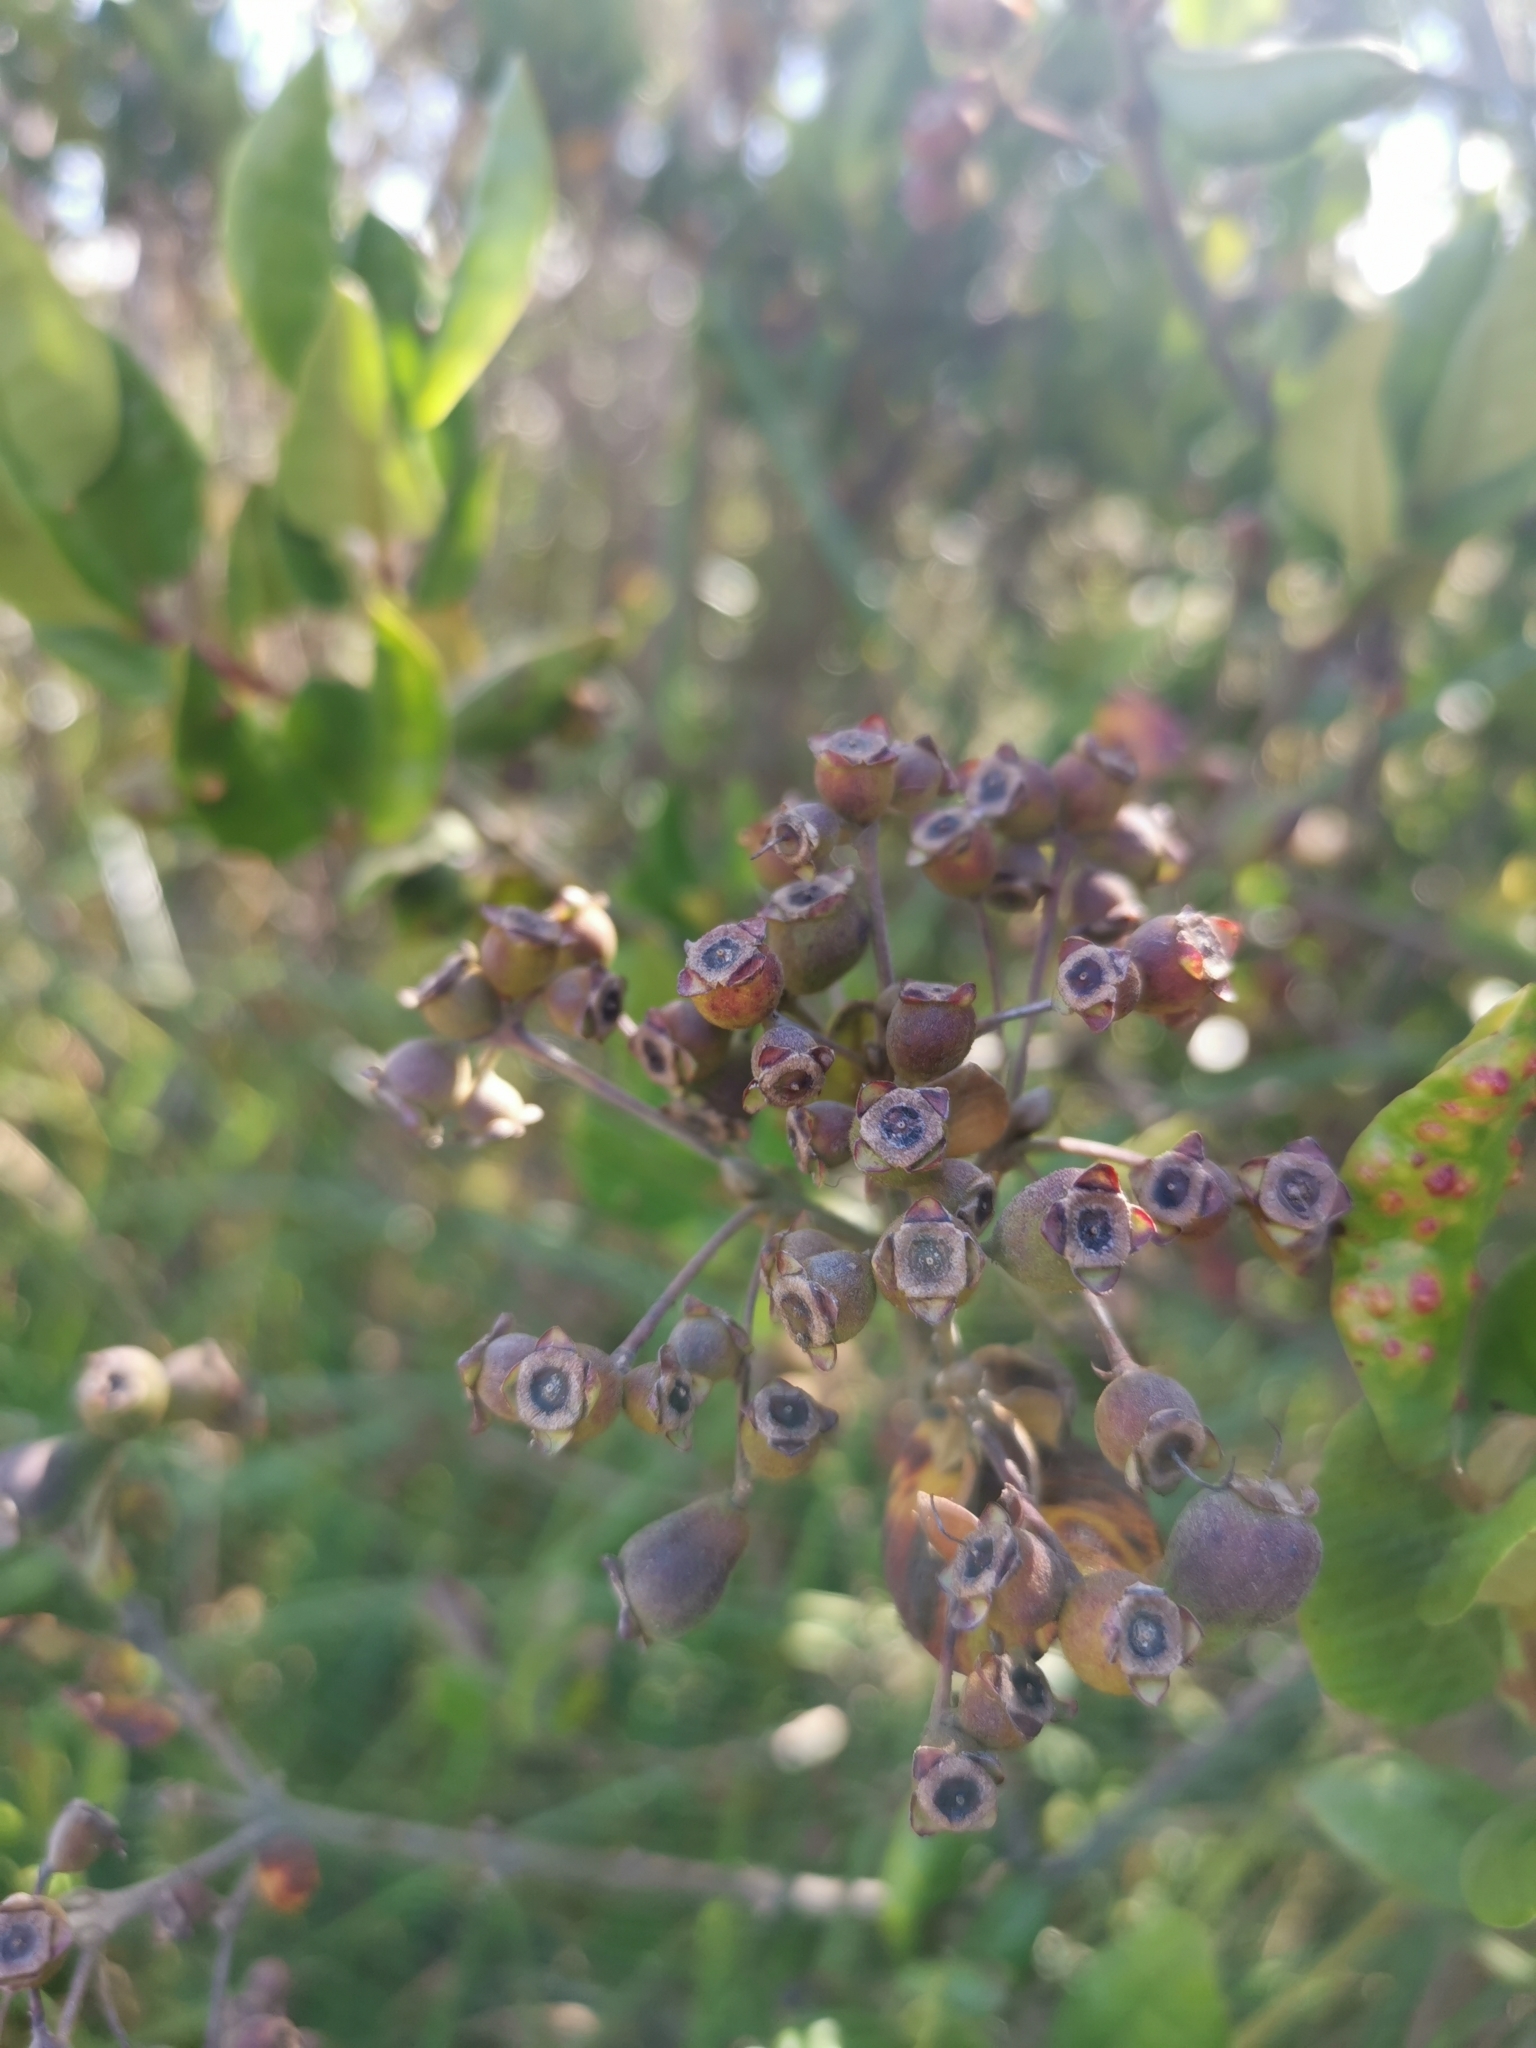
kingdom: Plantae
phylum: Tracheophyta
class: Magnoliopsida
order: Myrtales
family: Myrtaceae
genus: Myrceugenia
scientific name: Myrceugenia exsucca
